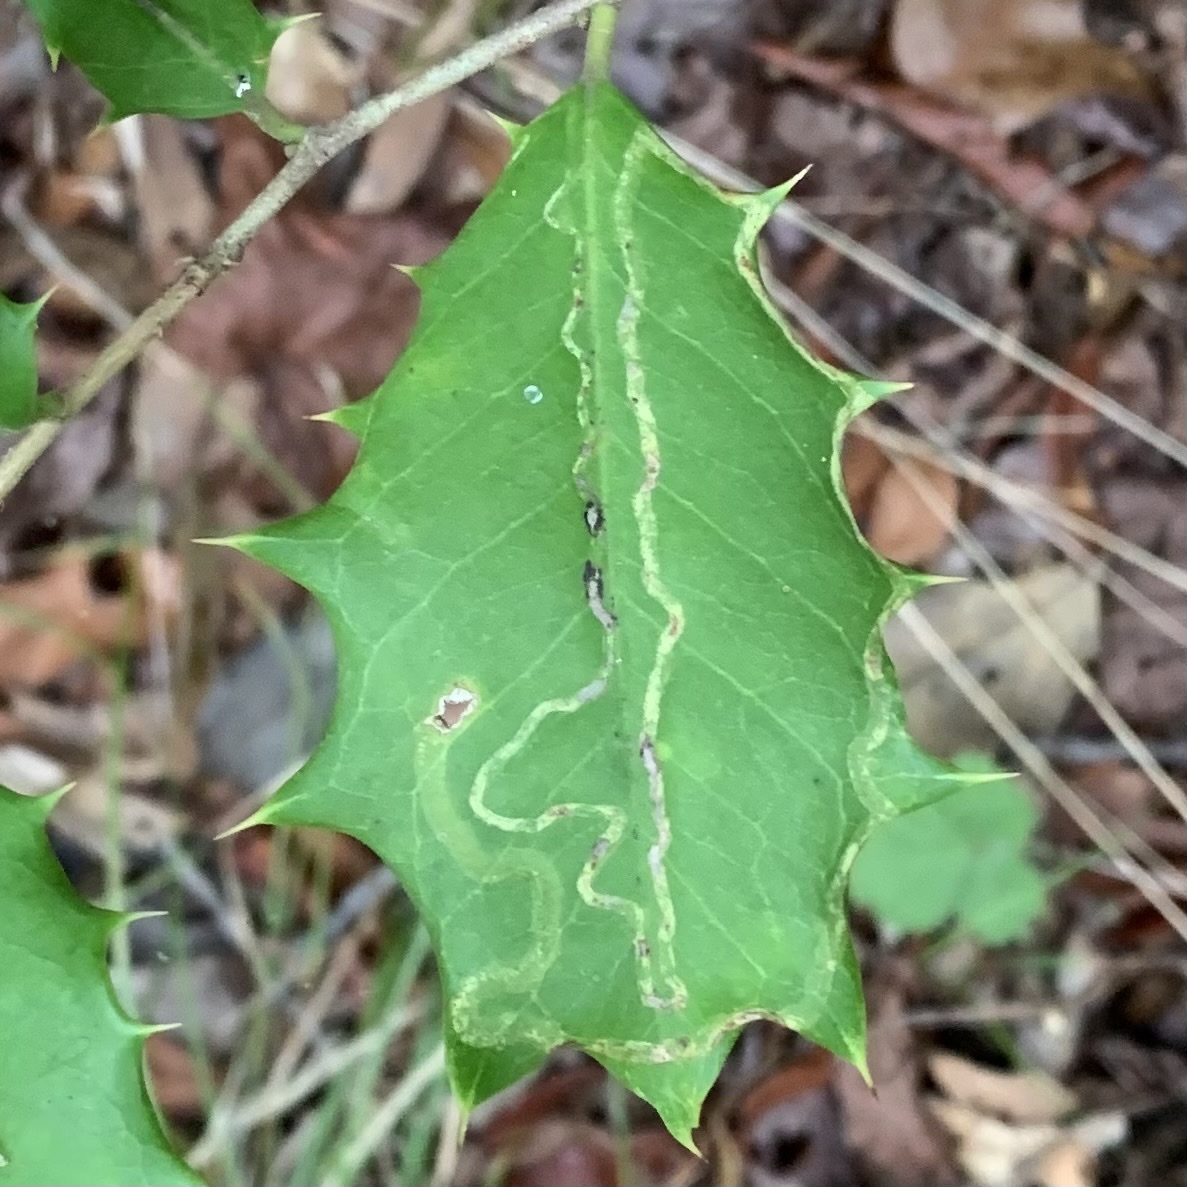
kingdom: Animalia
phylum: Arthropoda
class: Insecta
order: Diptera
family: Agromyzidae
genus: Phytomyza
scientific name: Phytomyza opacae
